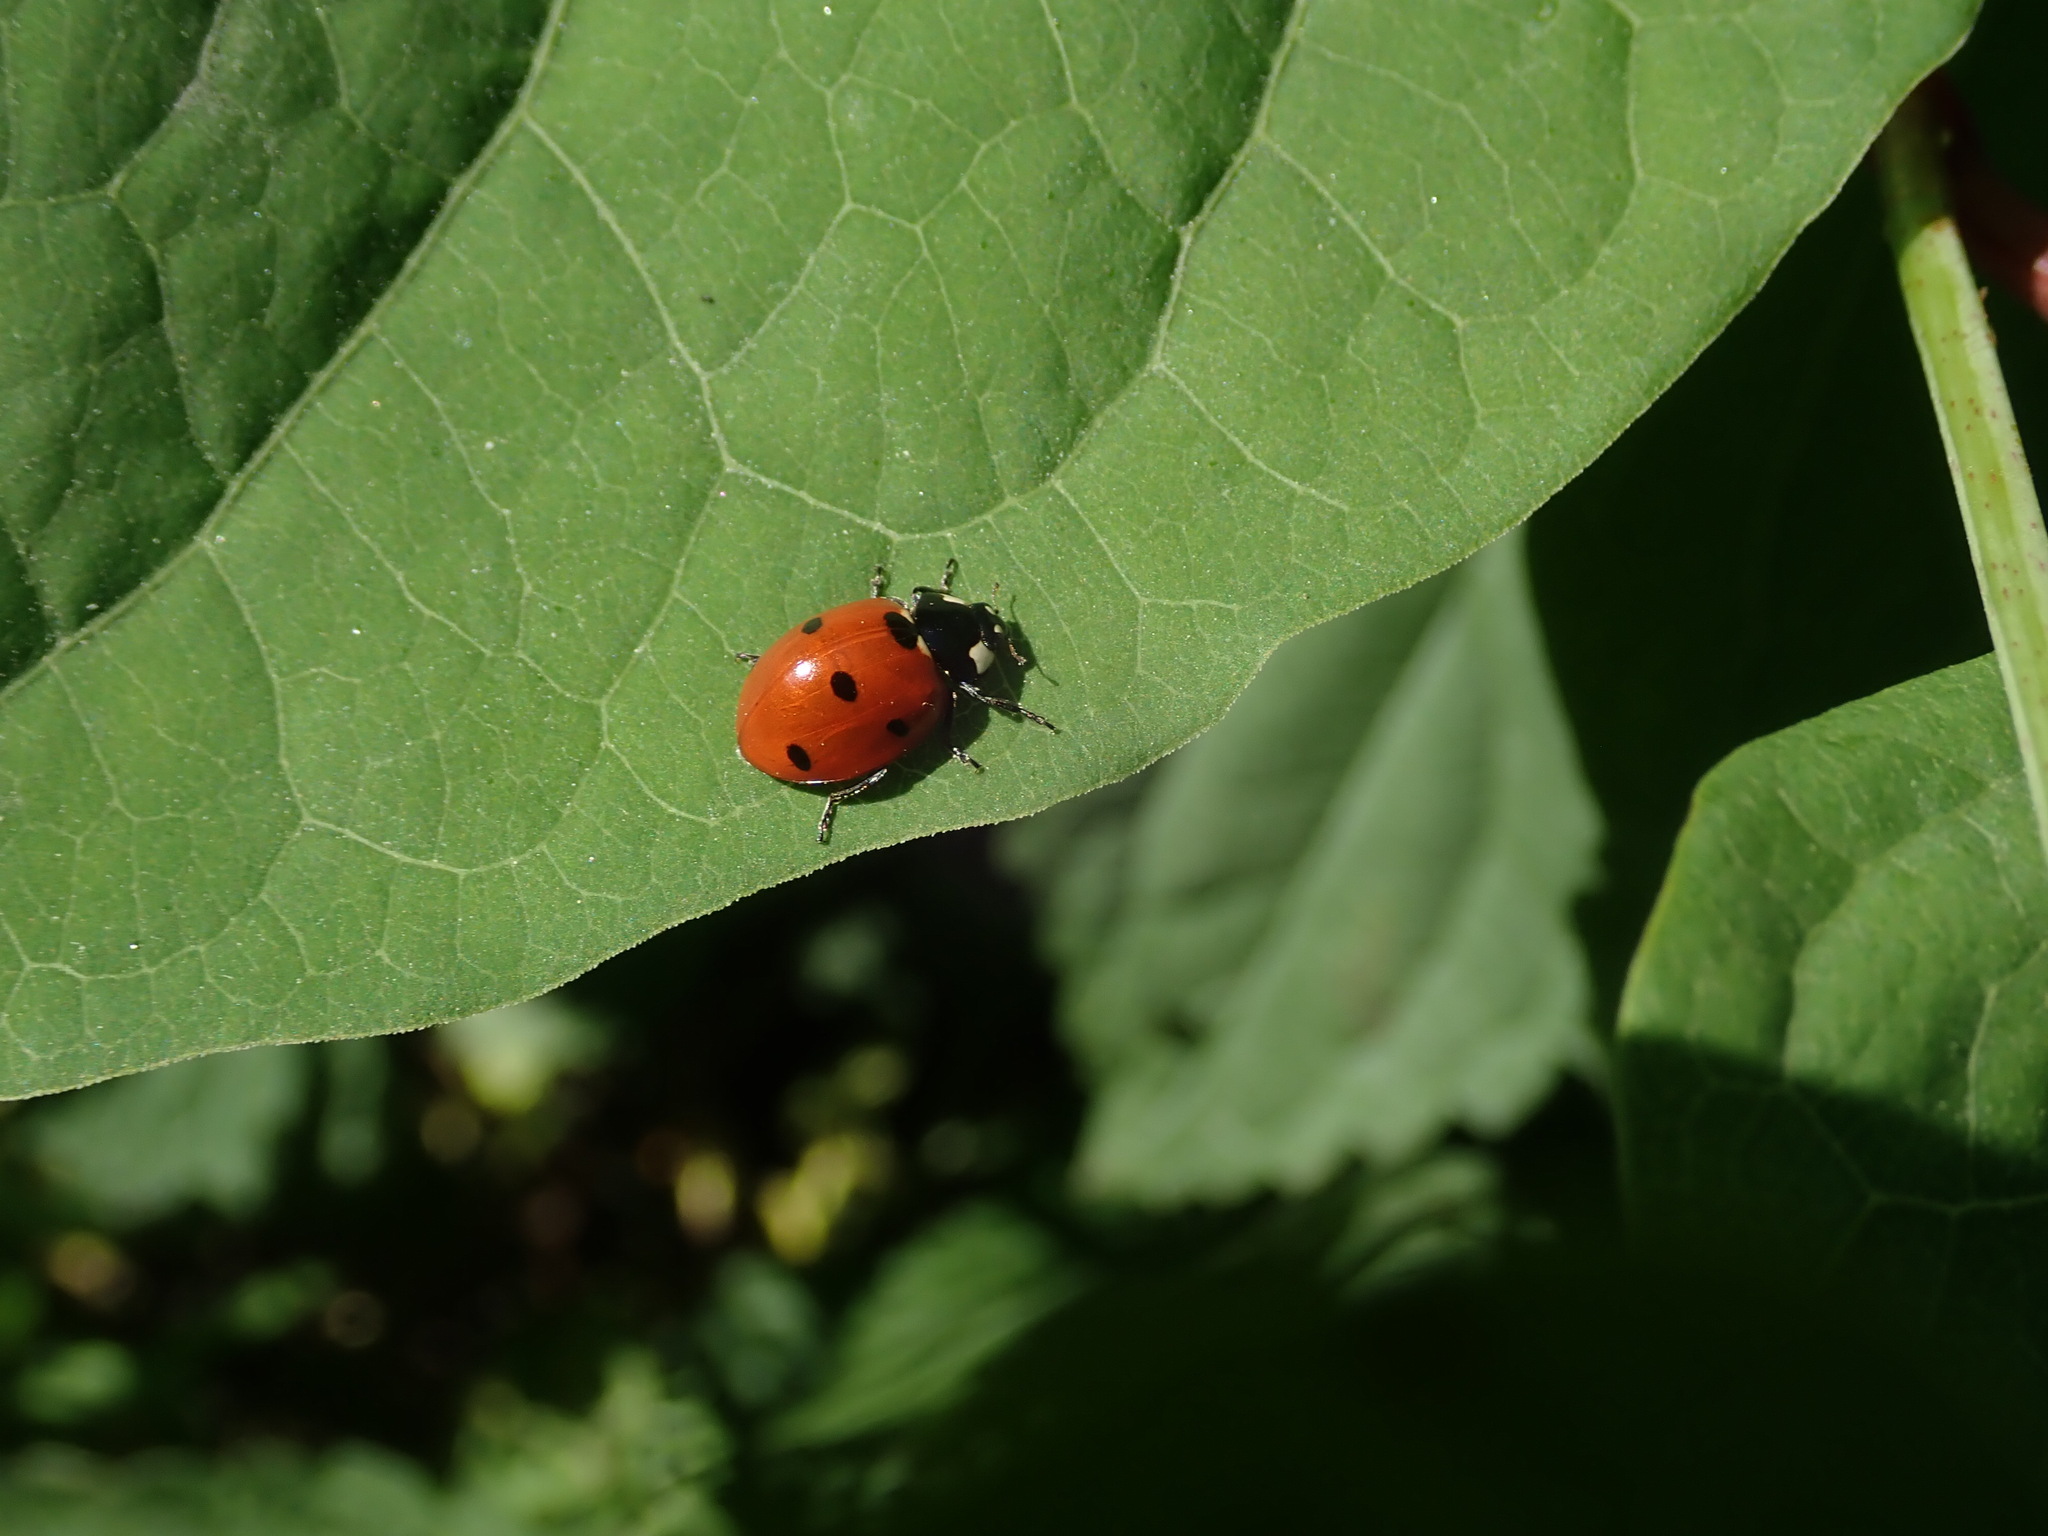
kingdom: Animalia
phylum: Arthropoda
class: Insecta
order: Coleoptera
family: Coccinellidae
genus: Coccinella
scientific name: Coccinella septempunctata
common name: Sevenspotted lady beetle
